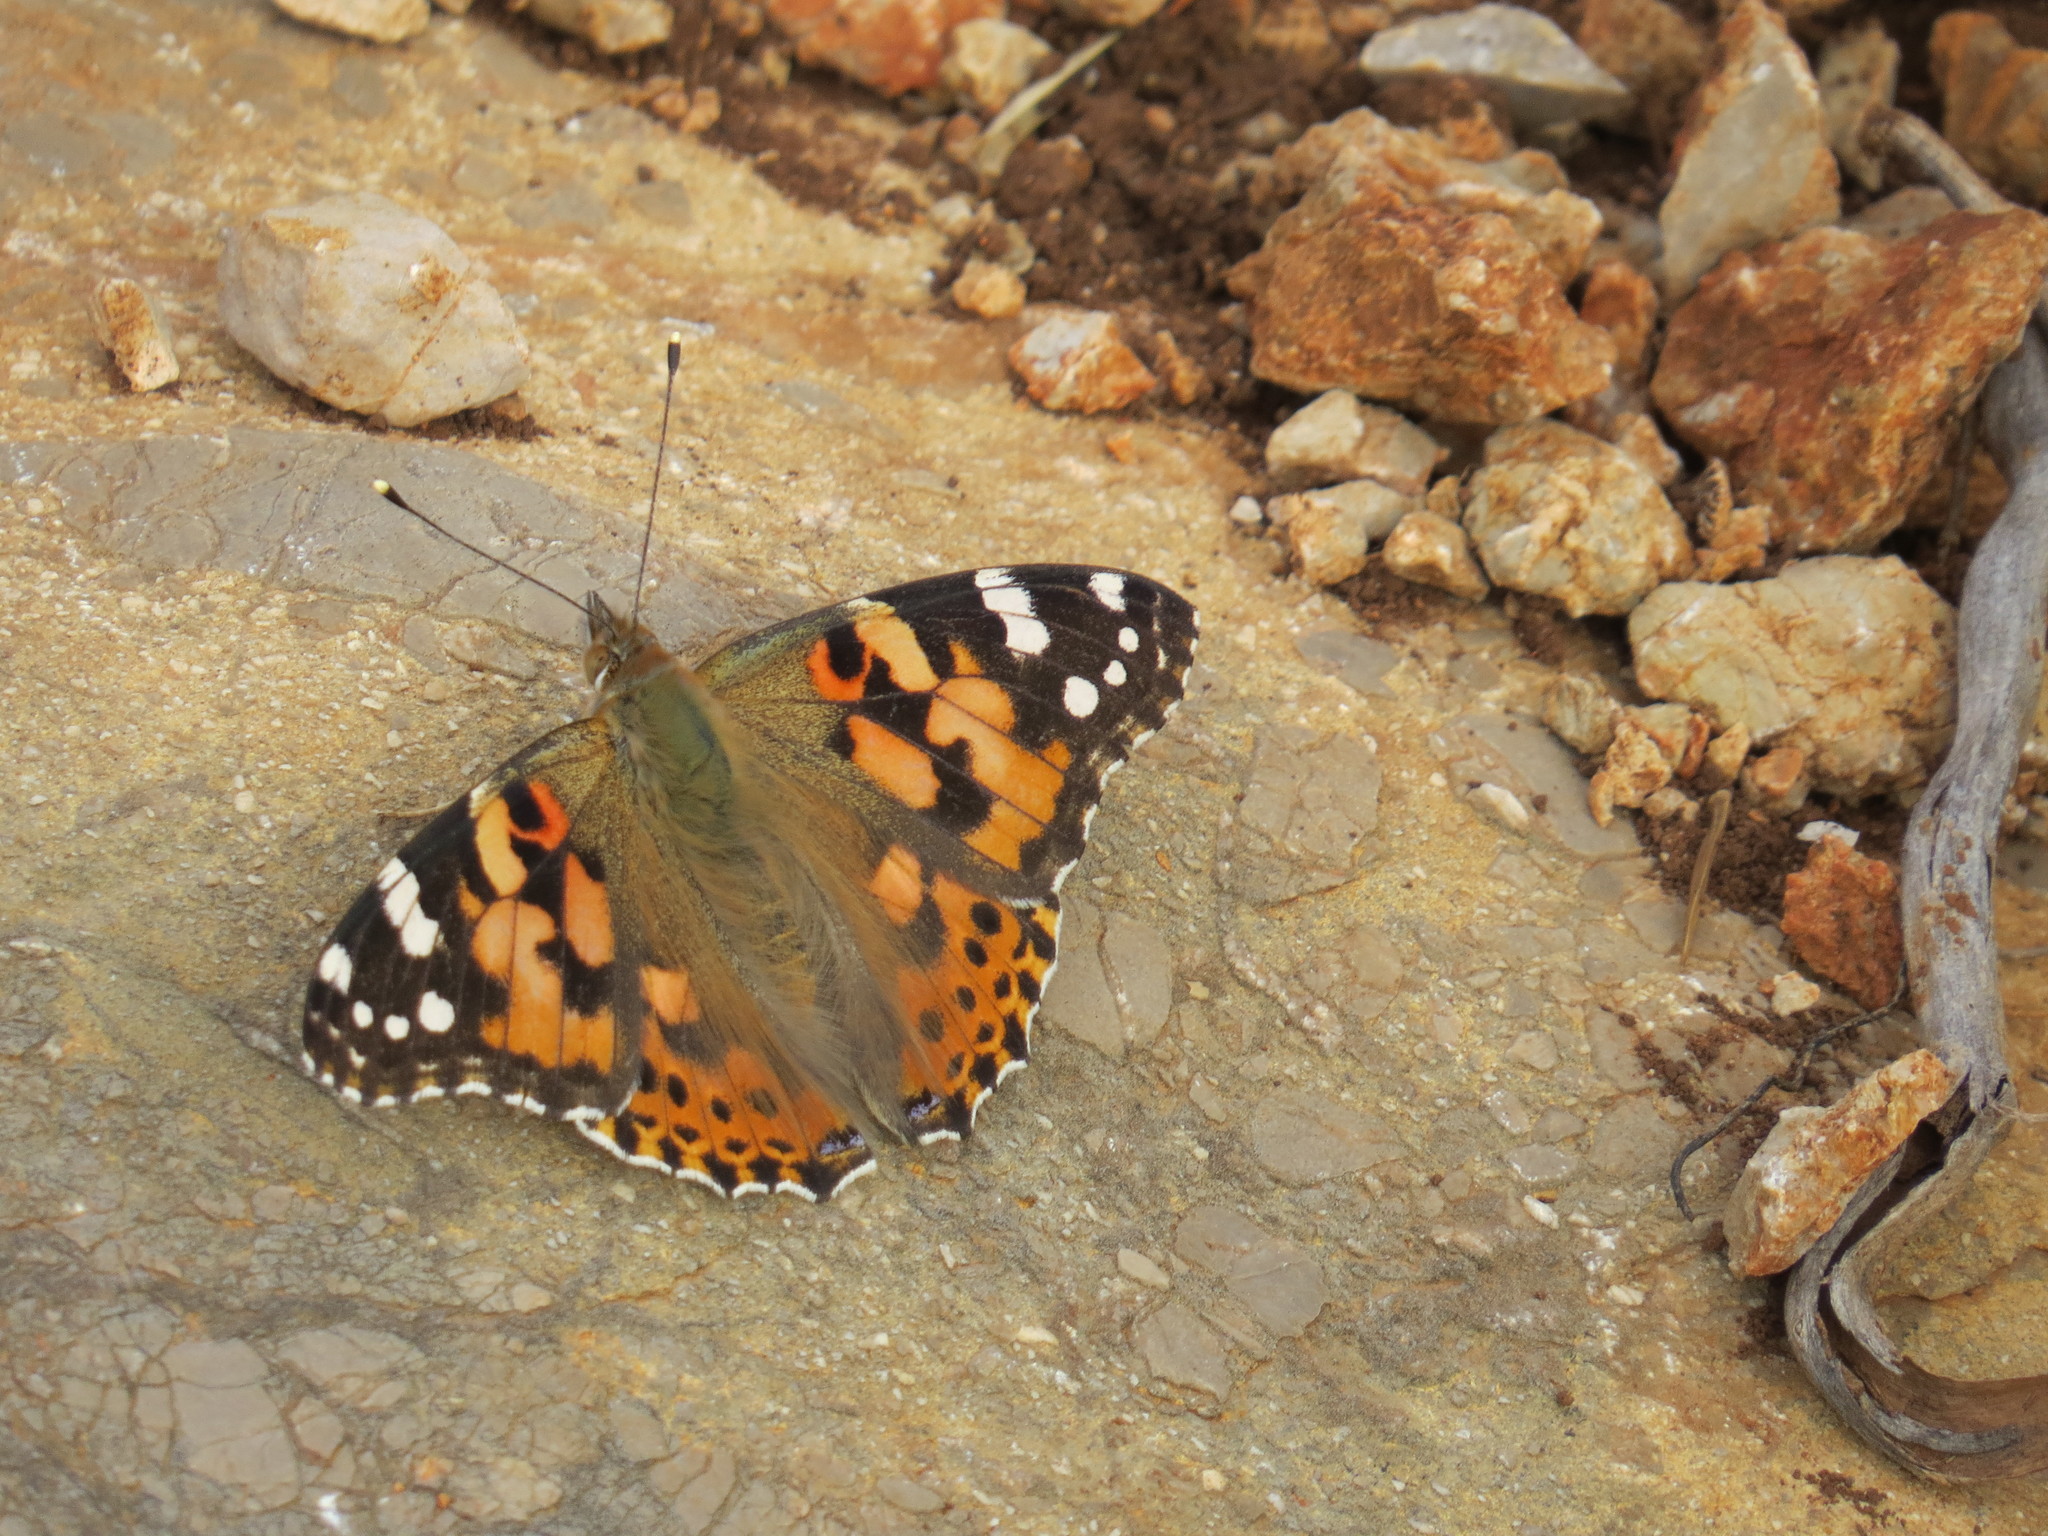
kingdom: Animalia
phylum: Arthropoda
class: Insecta
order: Lepidoptera
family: Nymphalidae
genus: Vanessa
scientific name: Vanessa cardui
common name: Painted lady
